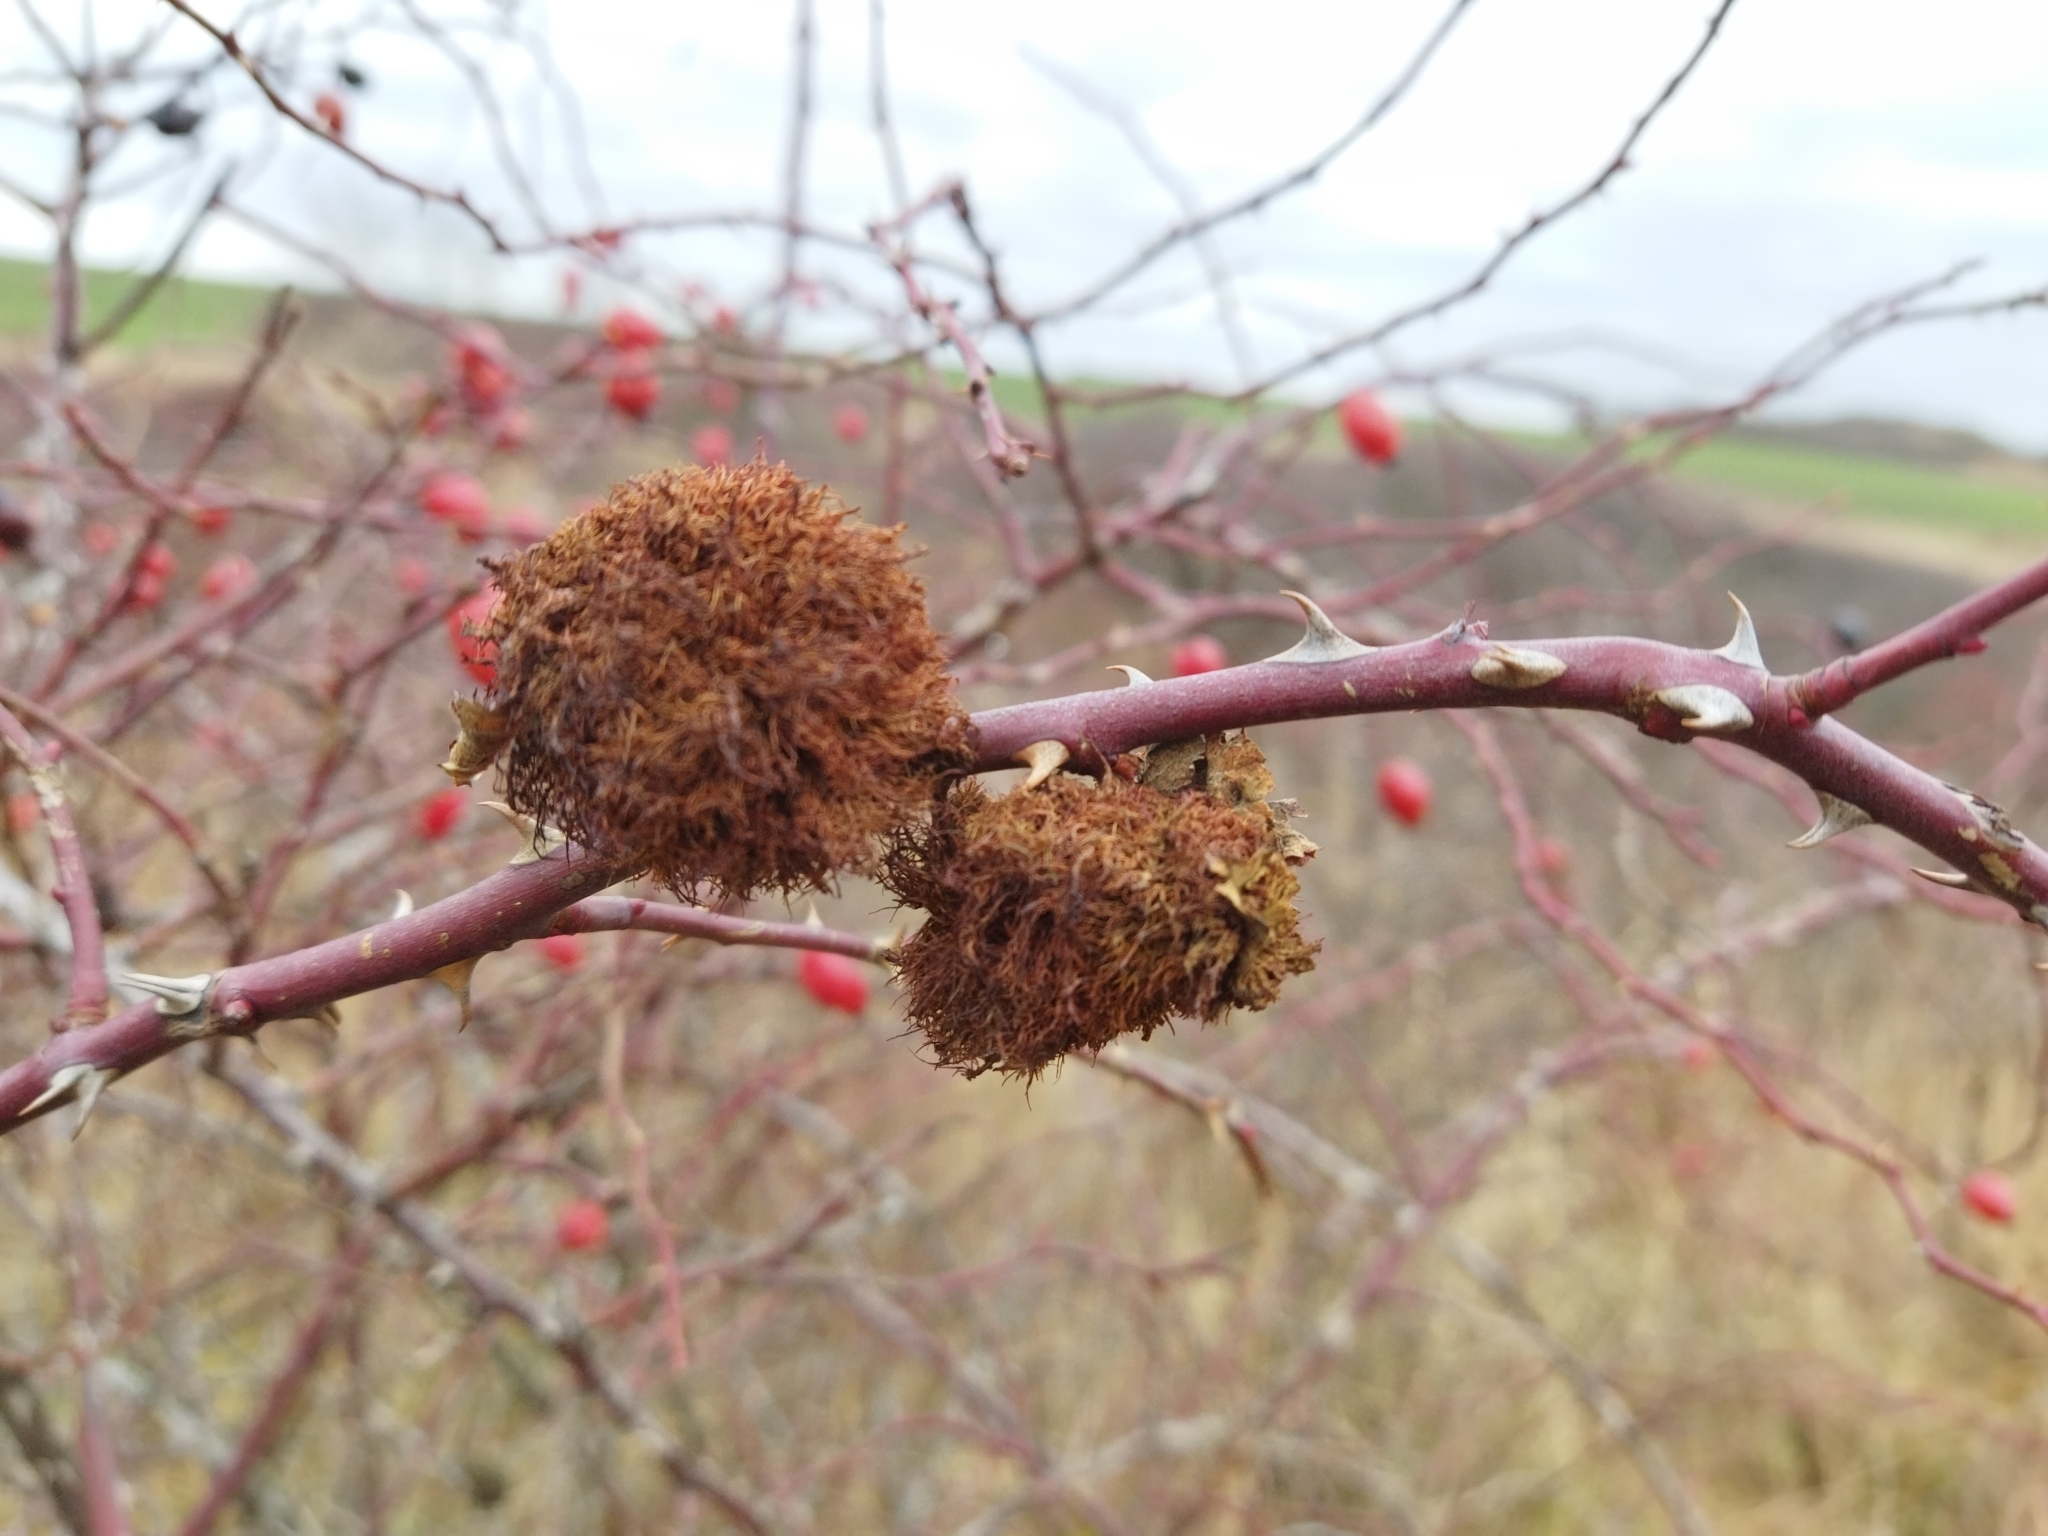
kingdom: Animalia
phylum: Arthropoda
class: Insecta
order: Hymenoptera
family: Cynipidae
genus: Diplolepis
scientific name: Diplolepis rosae
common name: Bedeguar gall
